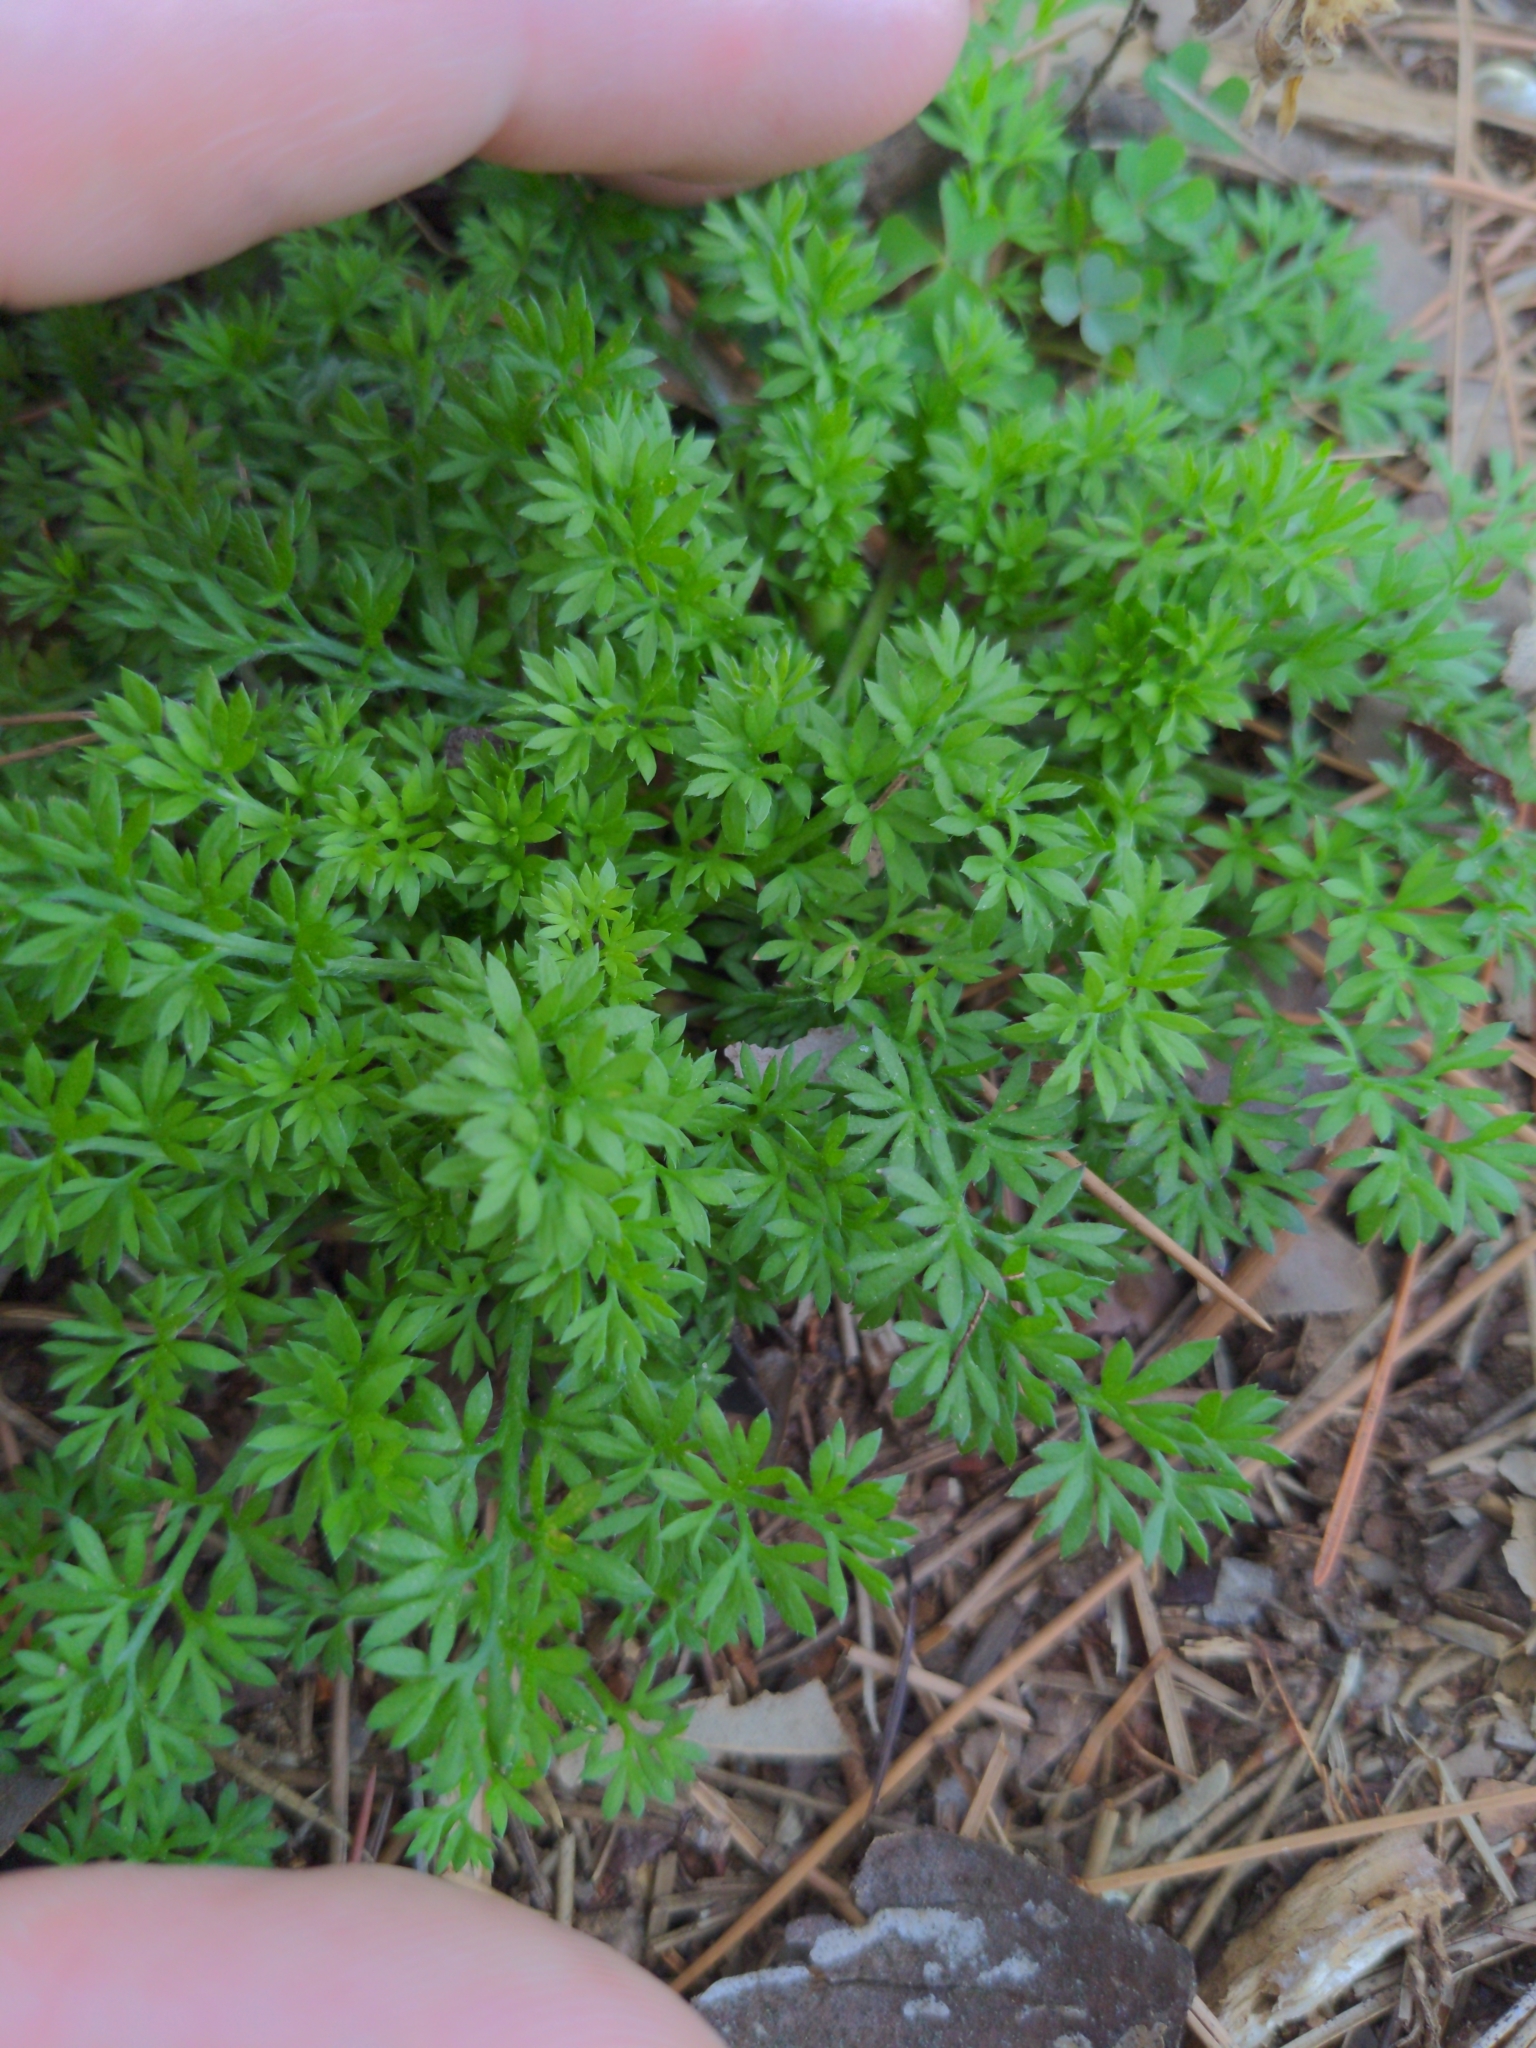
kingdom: Plantae
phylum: Tracheophyta
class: Magnoliopsida
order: Asterales
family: Asteraceae
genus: Soliva
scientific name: Soliva sessilis
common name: Field burrweed
